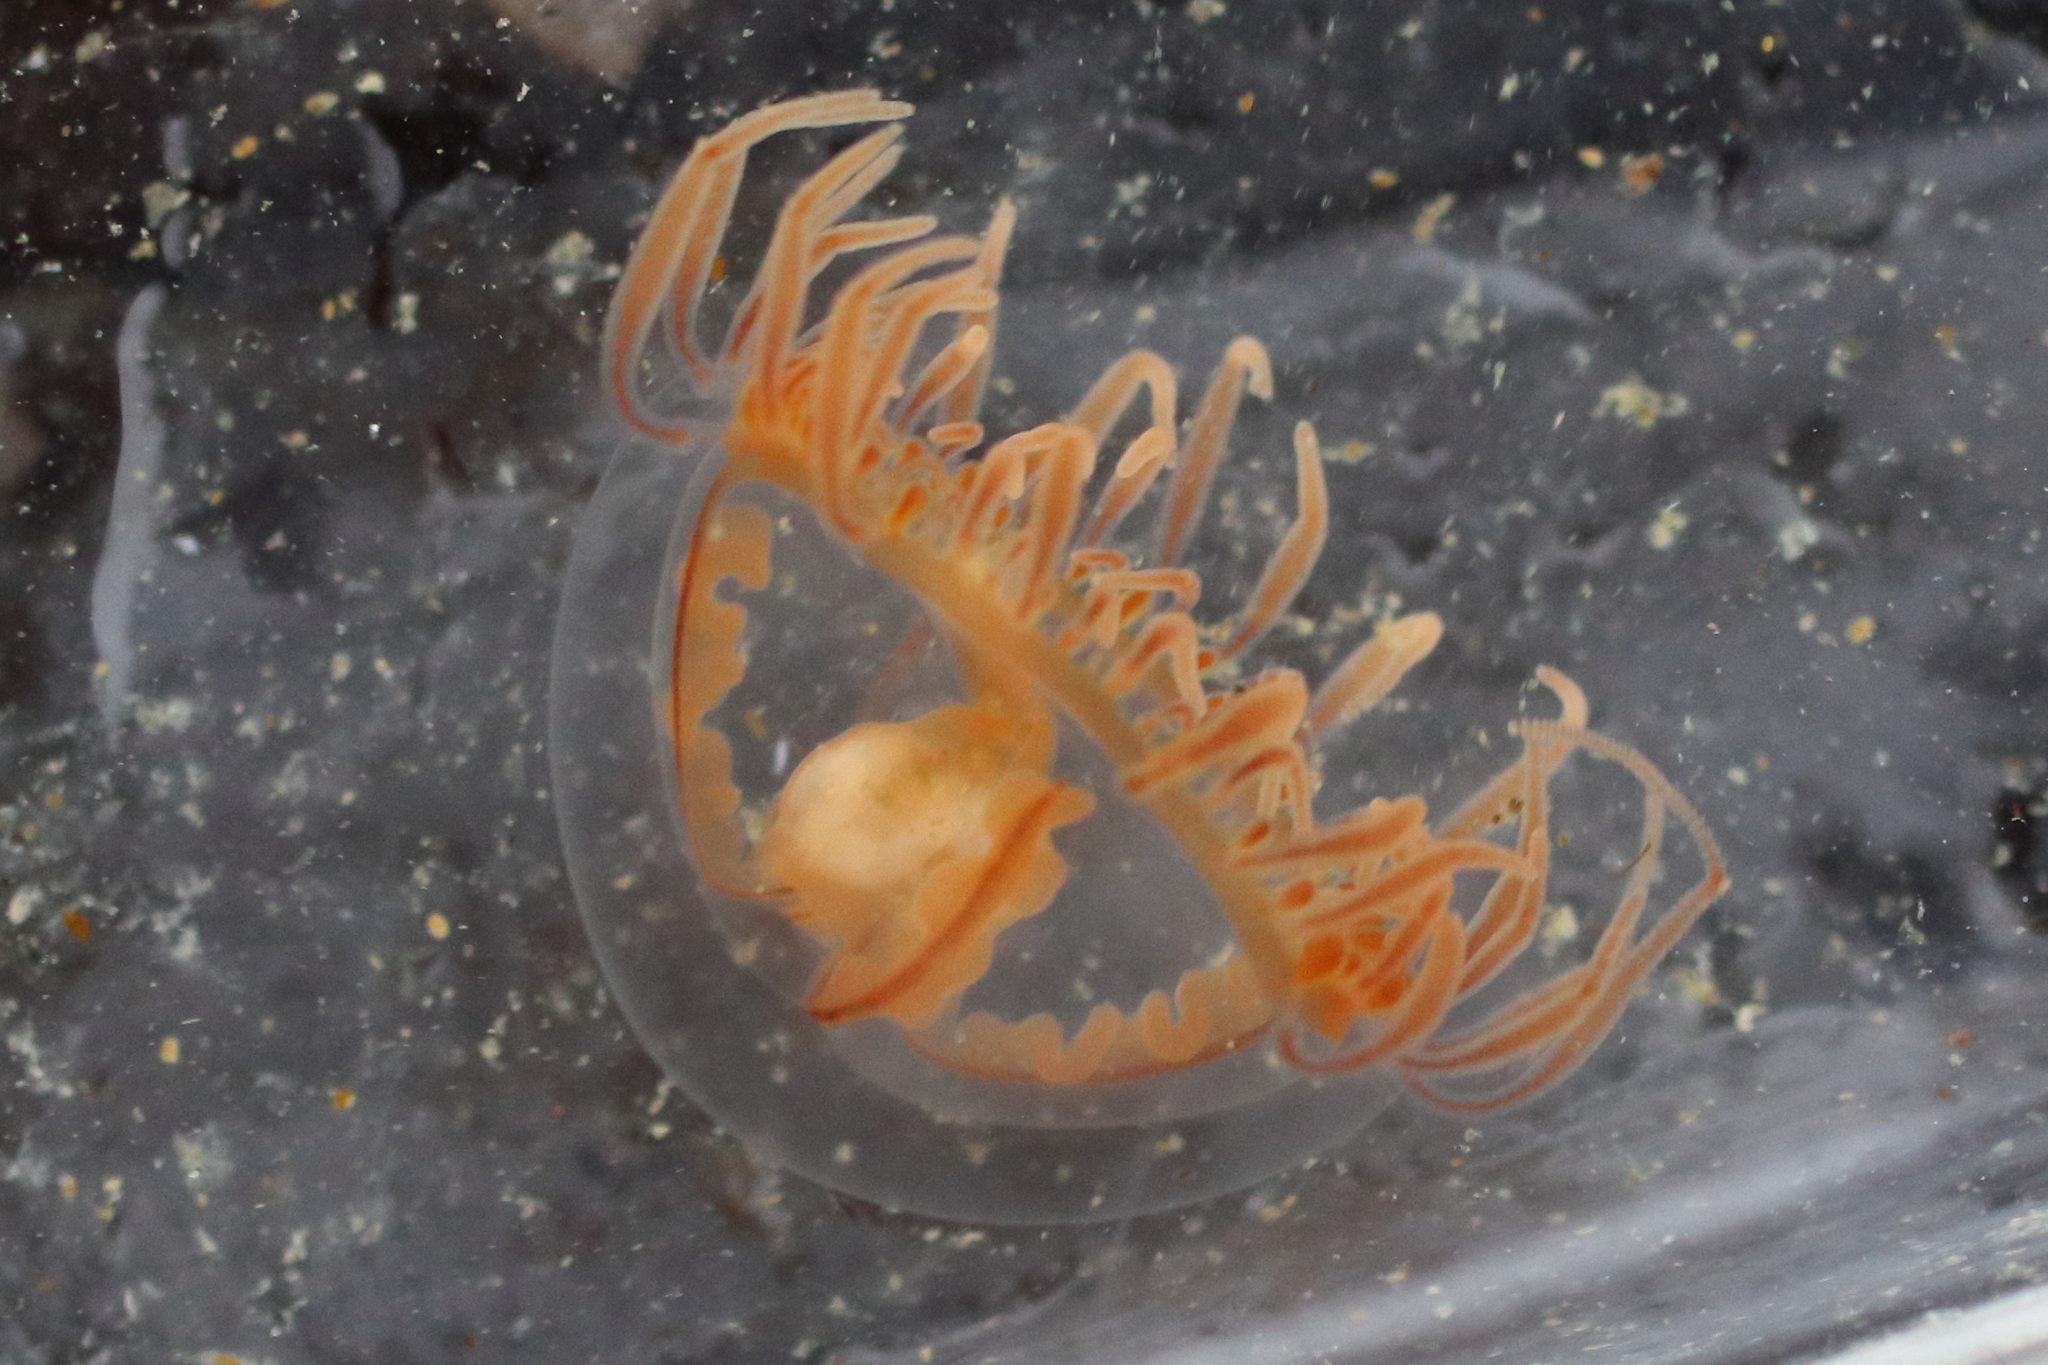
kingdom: Animalia
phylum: Cnidaria
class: Hydrozoa
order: Limnomedusae
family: Olindiidae
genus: Gonionemus
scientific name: Gonionemus vertens
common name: Clinging jellyfish
